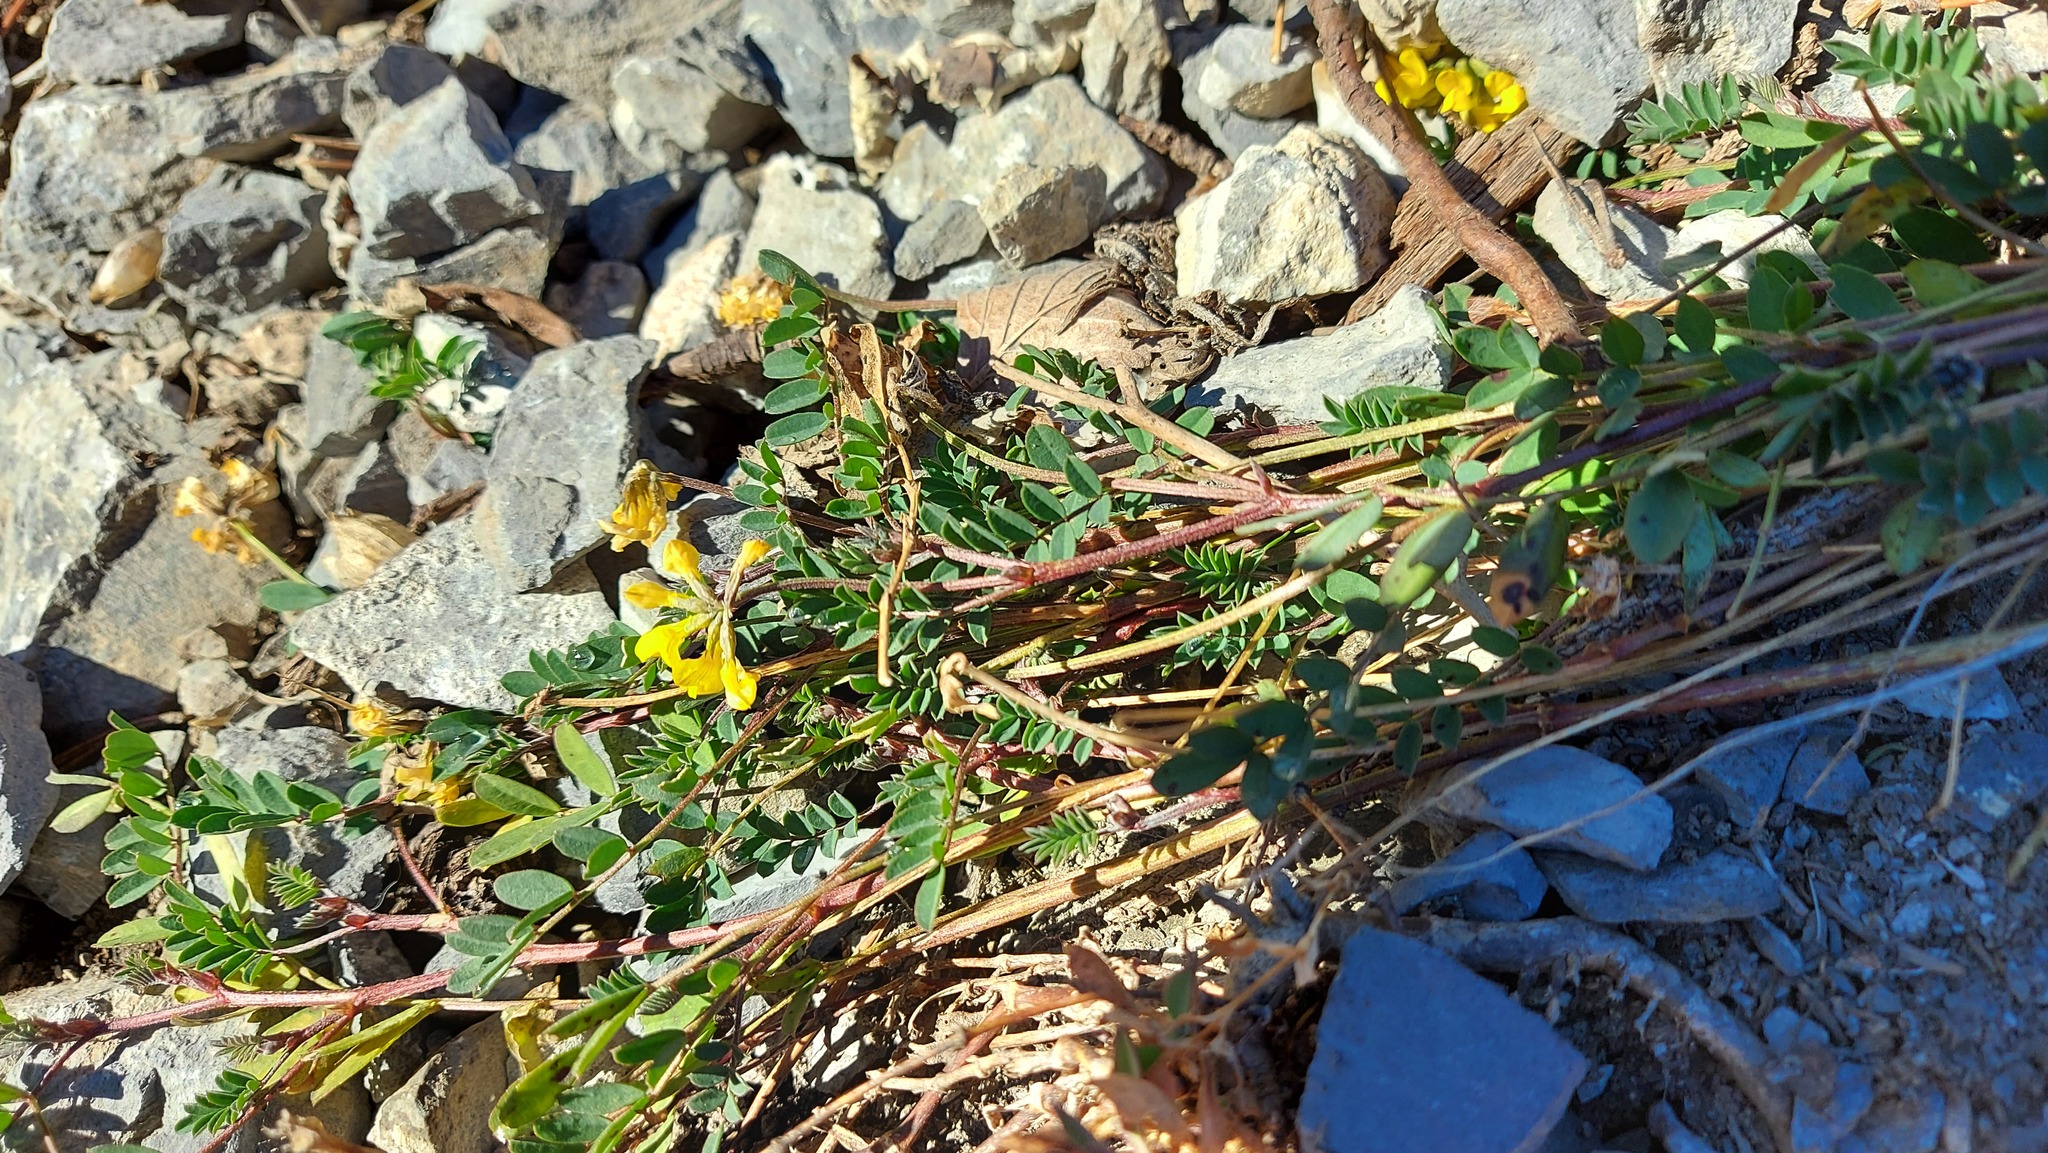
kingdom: Plantae
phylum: Tracheophyta
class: Magnoliopsida
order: Fabales
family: Fabaceae
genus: Hippocrepis
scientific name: Hippocrepis comosa
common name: Horseshoe vetch
